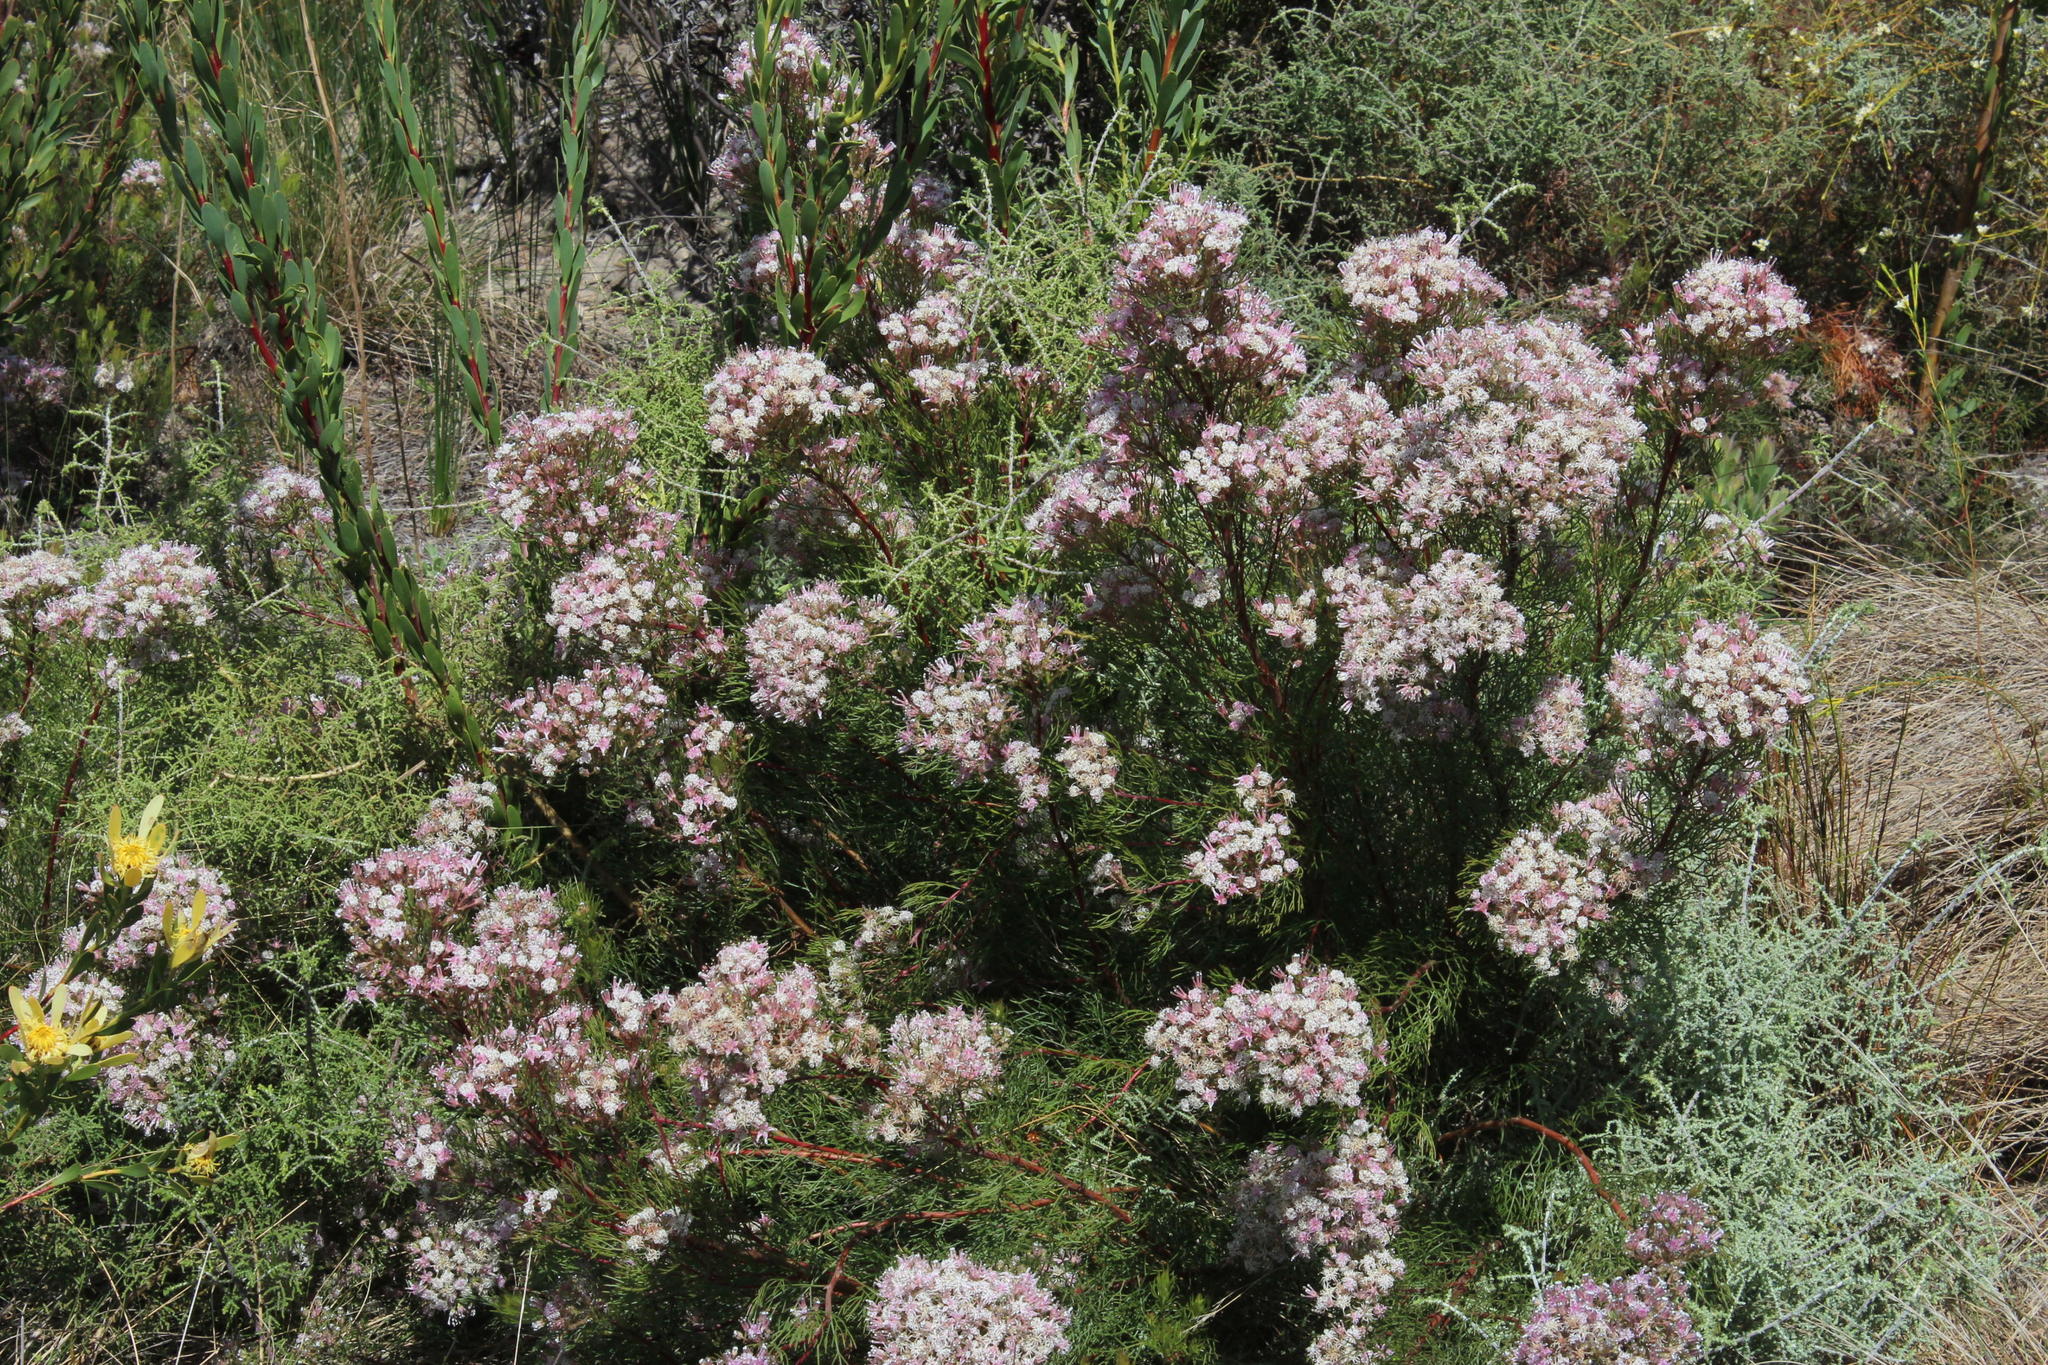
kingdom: Plantae
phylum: Tracheophyta
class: Magnoliopsida
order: Proteales
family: Proteaceae
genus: Serruria
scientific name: Serruria fasciflora
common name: Common pin spiderhead
